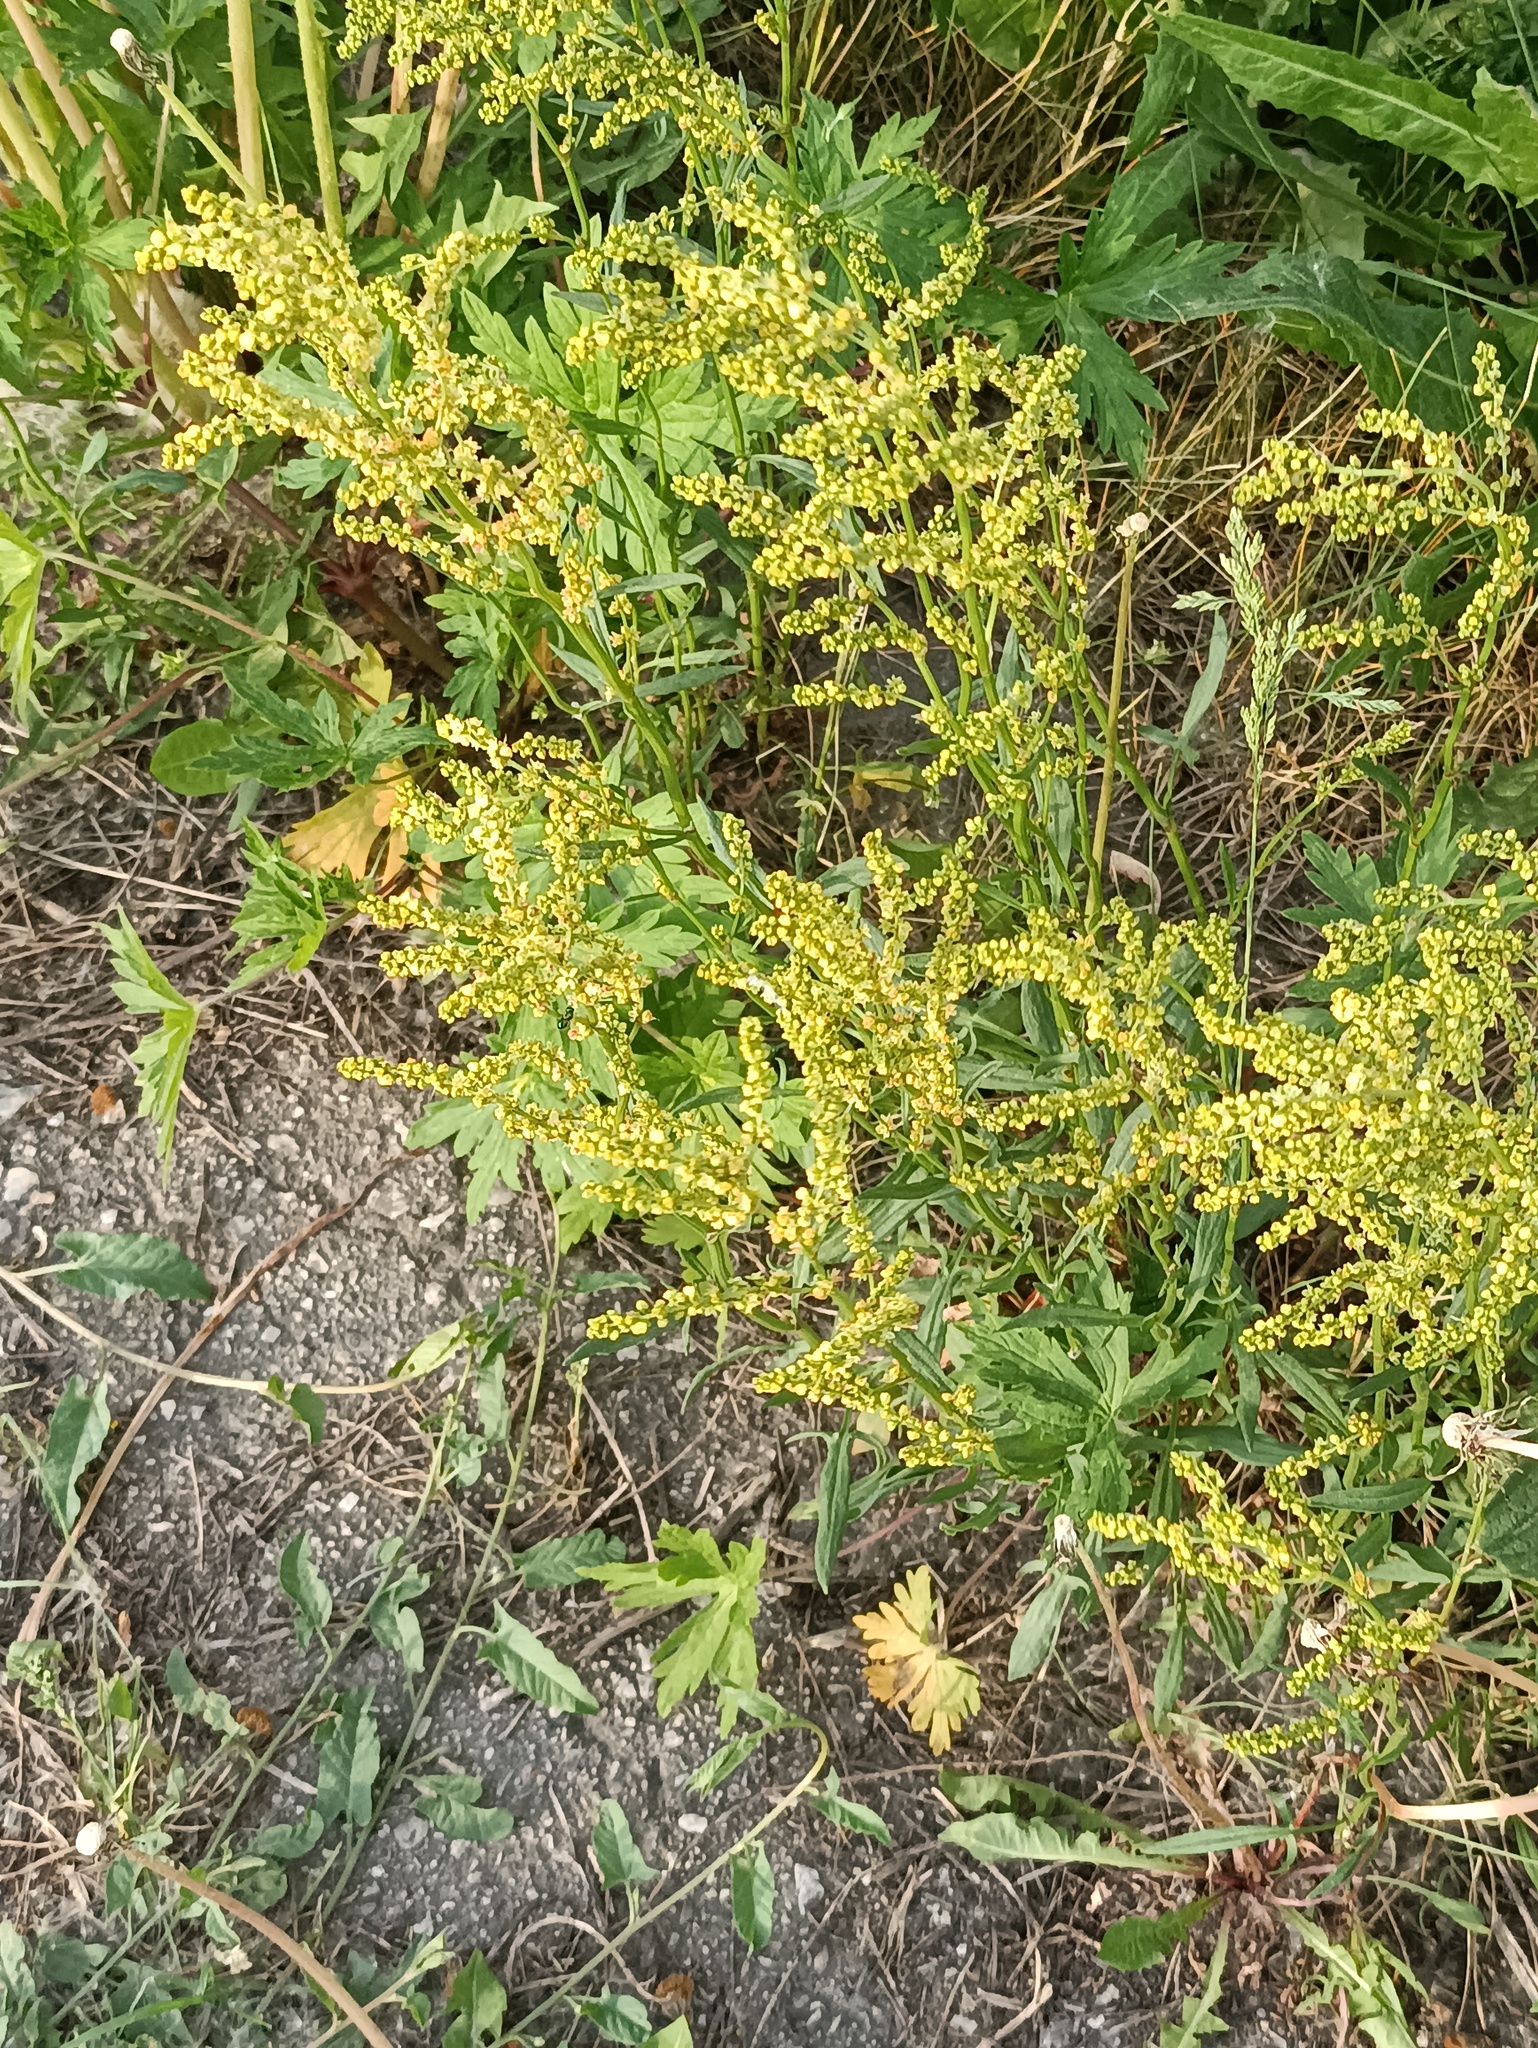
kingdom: Plantae
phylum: Tracheophyta
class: Magnoliopsida
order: Caryophyllales
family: Polygonaceae
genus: Rumex
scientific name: Rumex acetosella
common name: Common sheep sorrel
